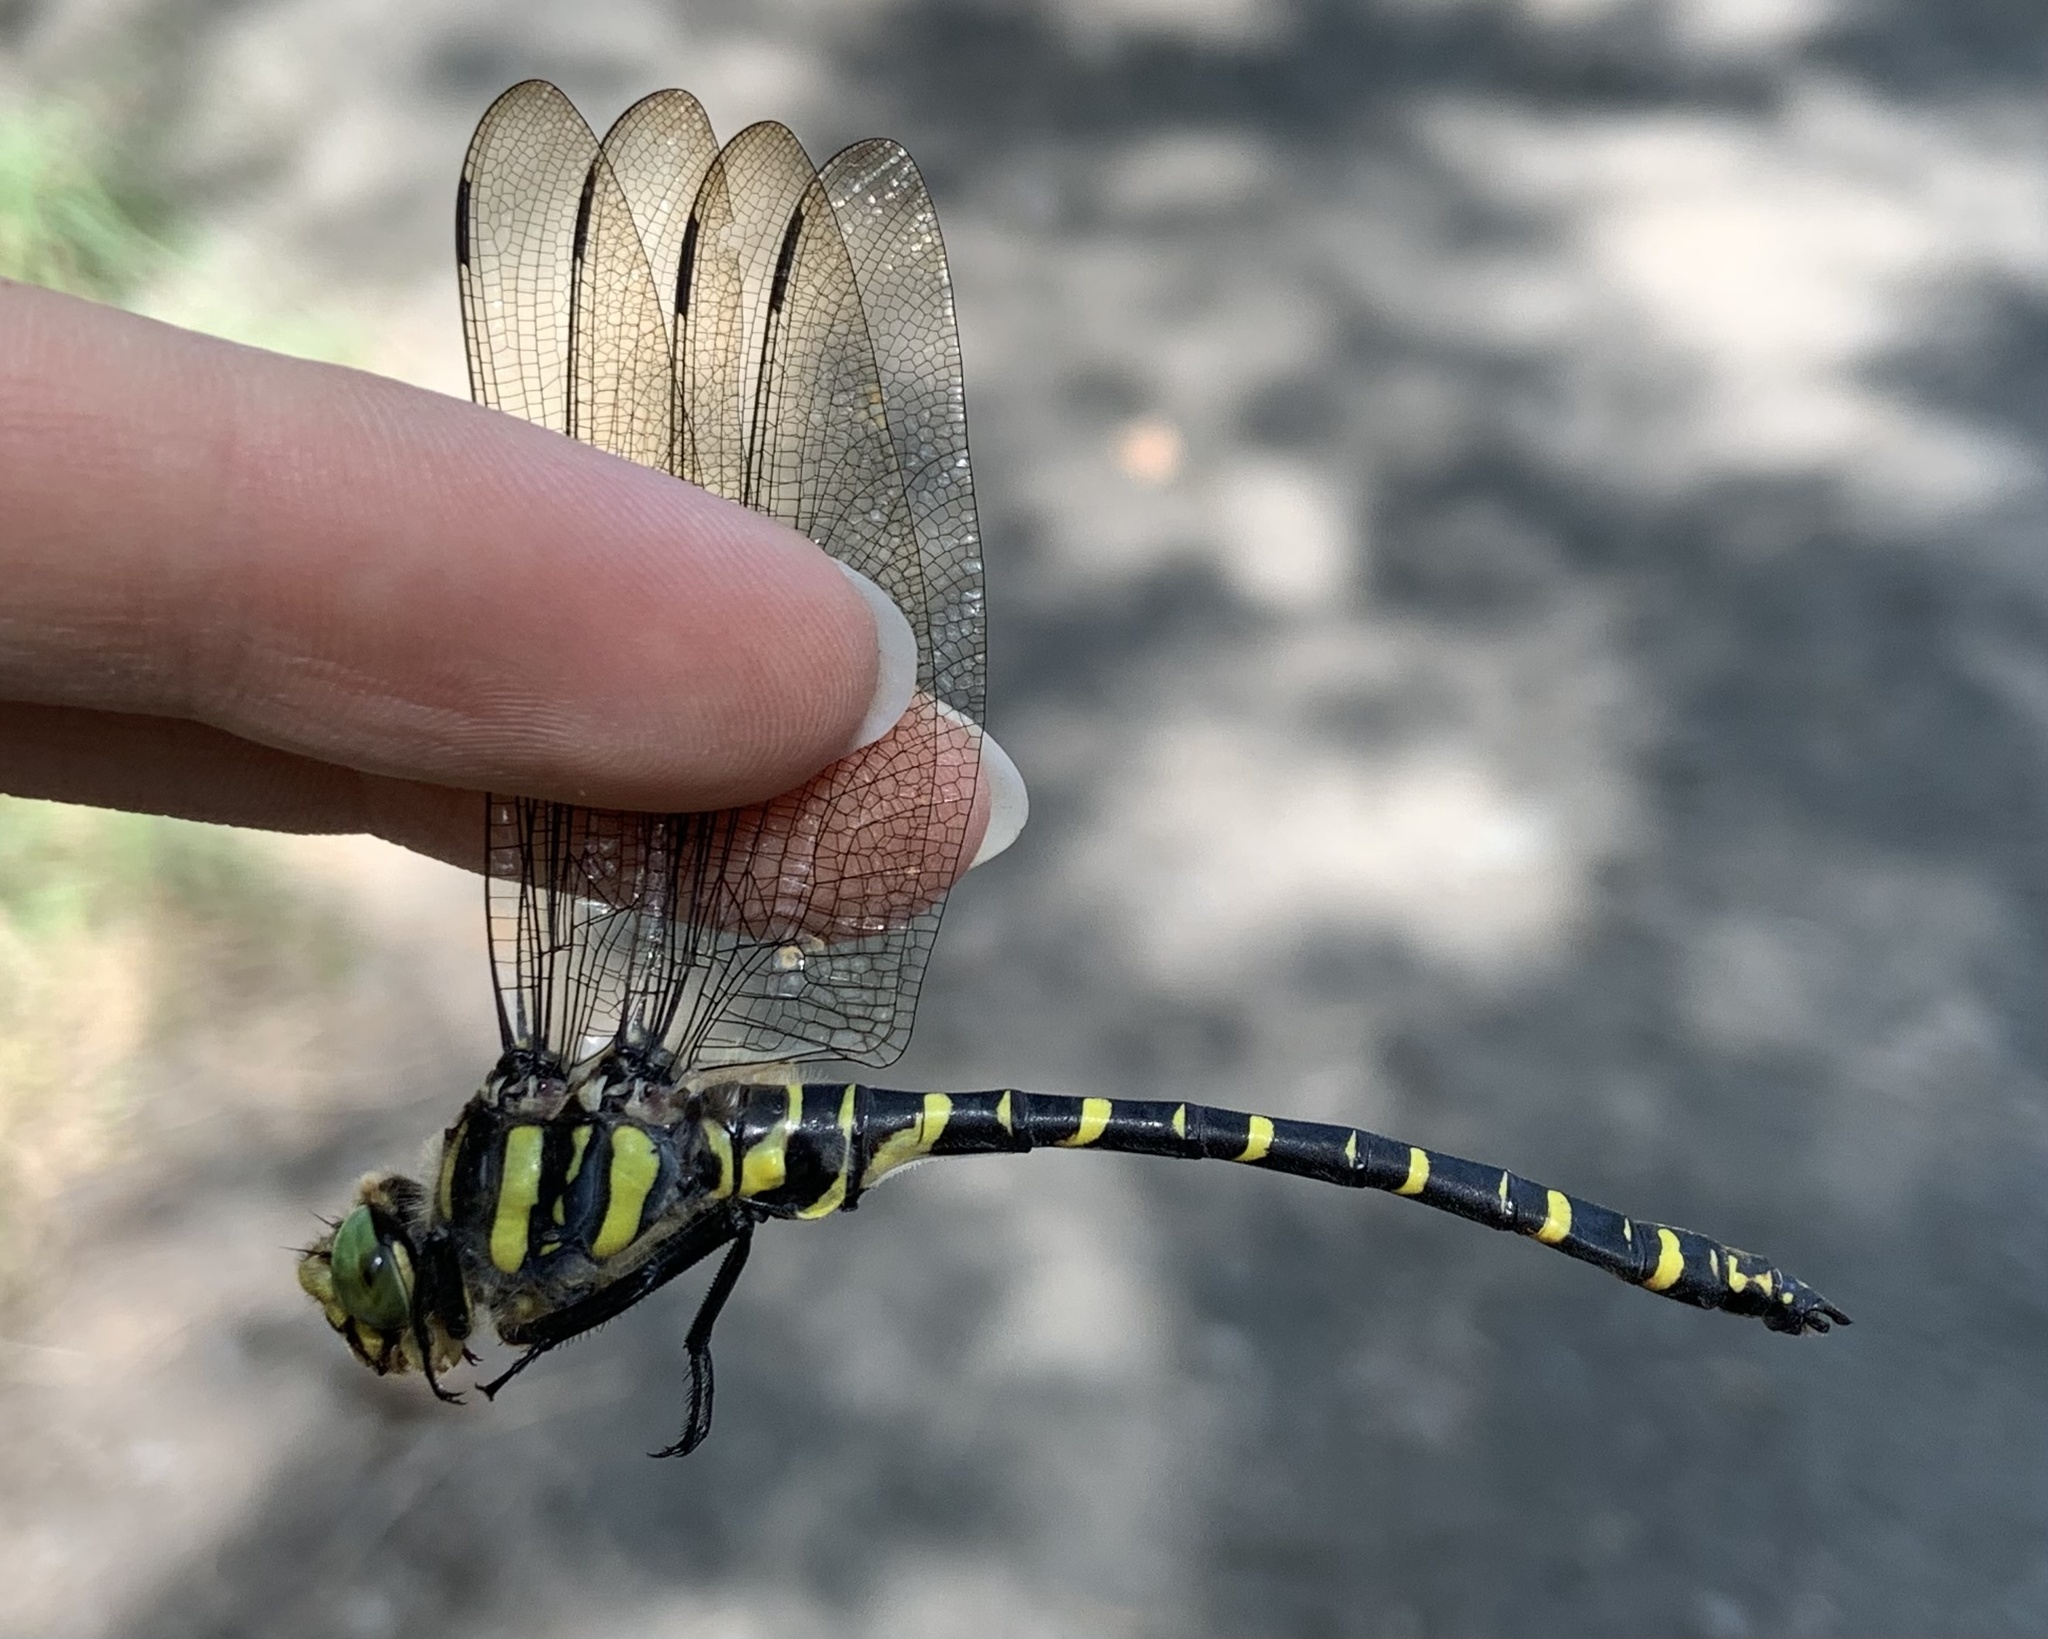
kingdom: Animalia
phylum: Arthropoda
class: Insecta
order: Odonata
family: Cordulegastridae
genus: Cordulegaster
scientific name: Cordulegaster boltonii
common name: Golden-ringed dragonfly
